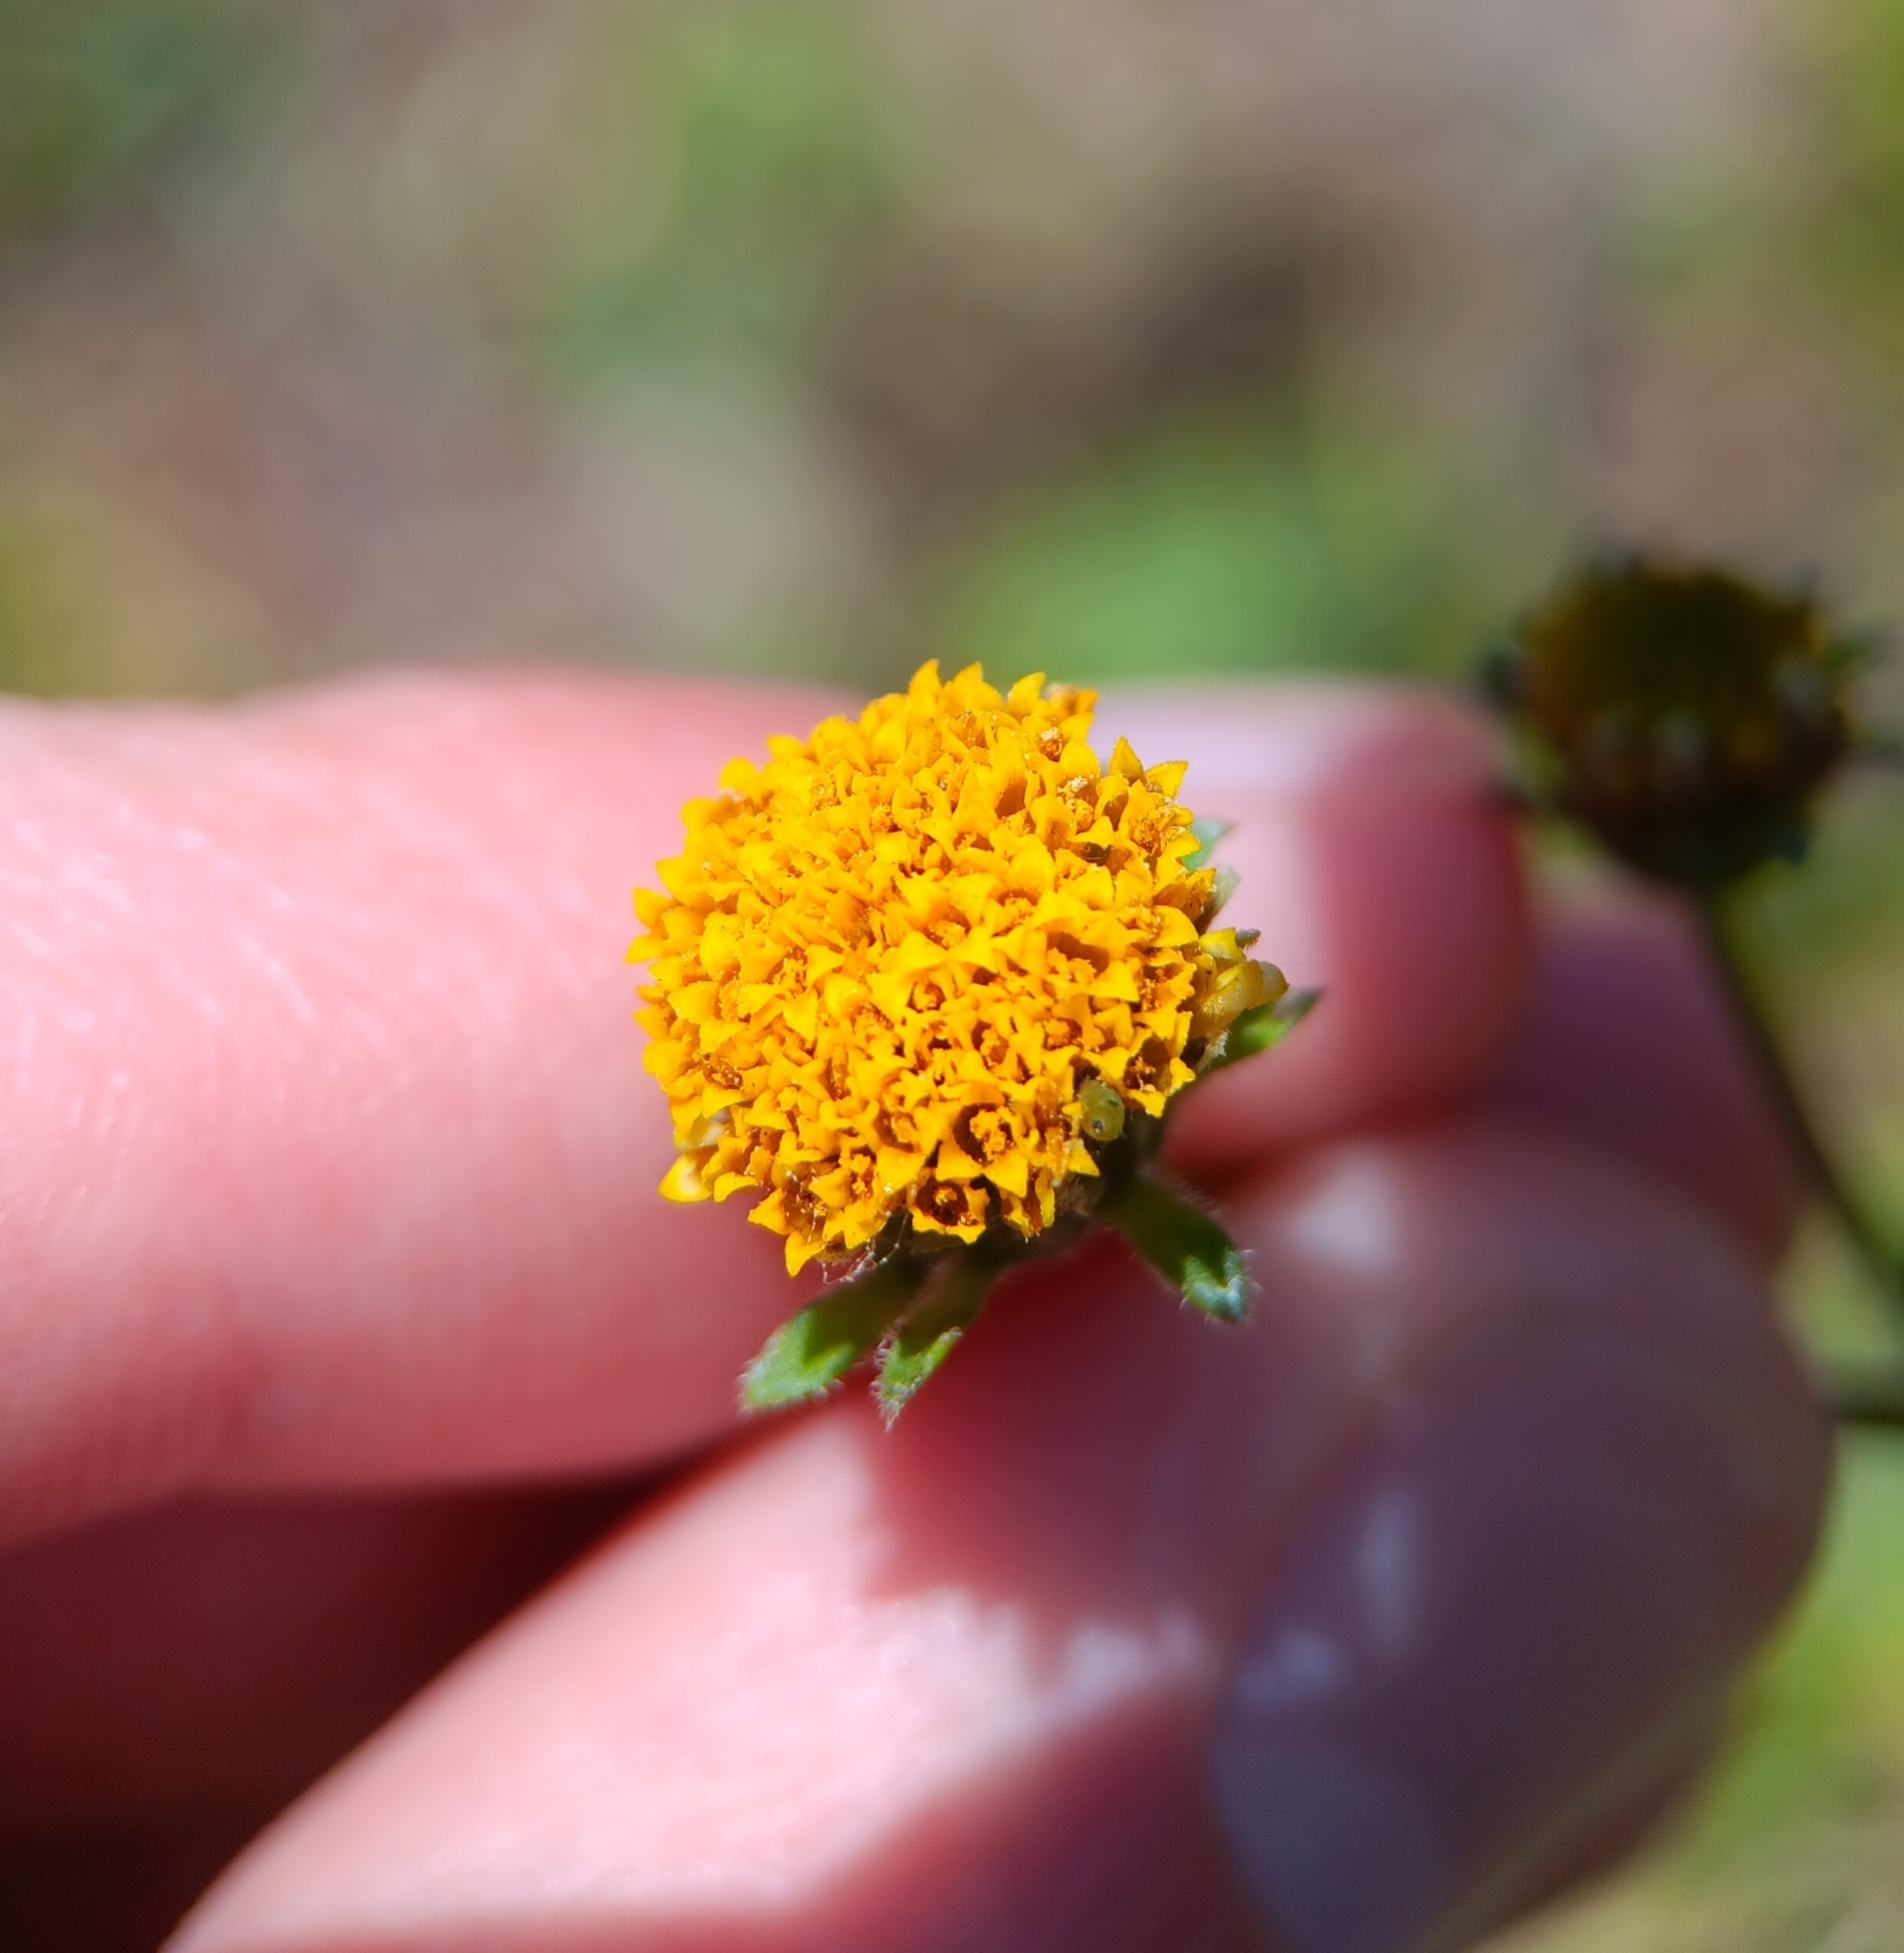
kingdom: Plantae
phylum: Tracheophyta
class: Magnoliopsida
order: Asterales
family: Asteraceae
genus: Bidens
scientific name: Bidens pilosa
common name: Black-jack
